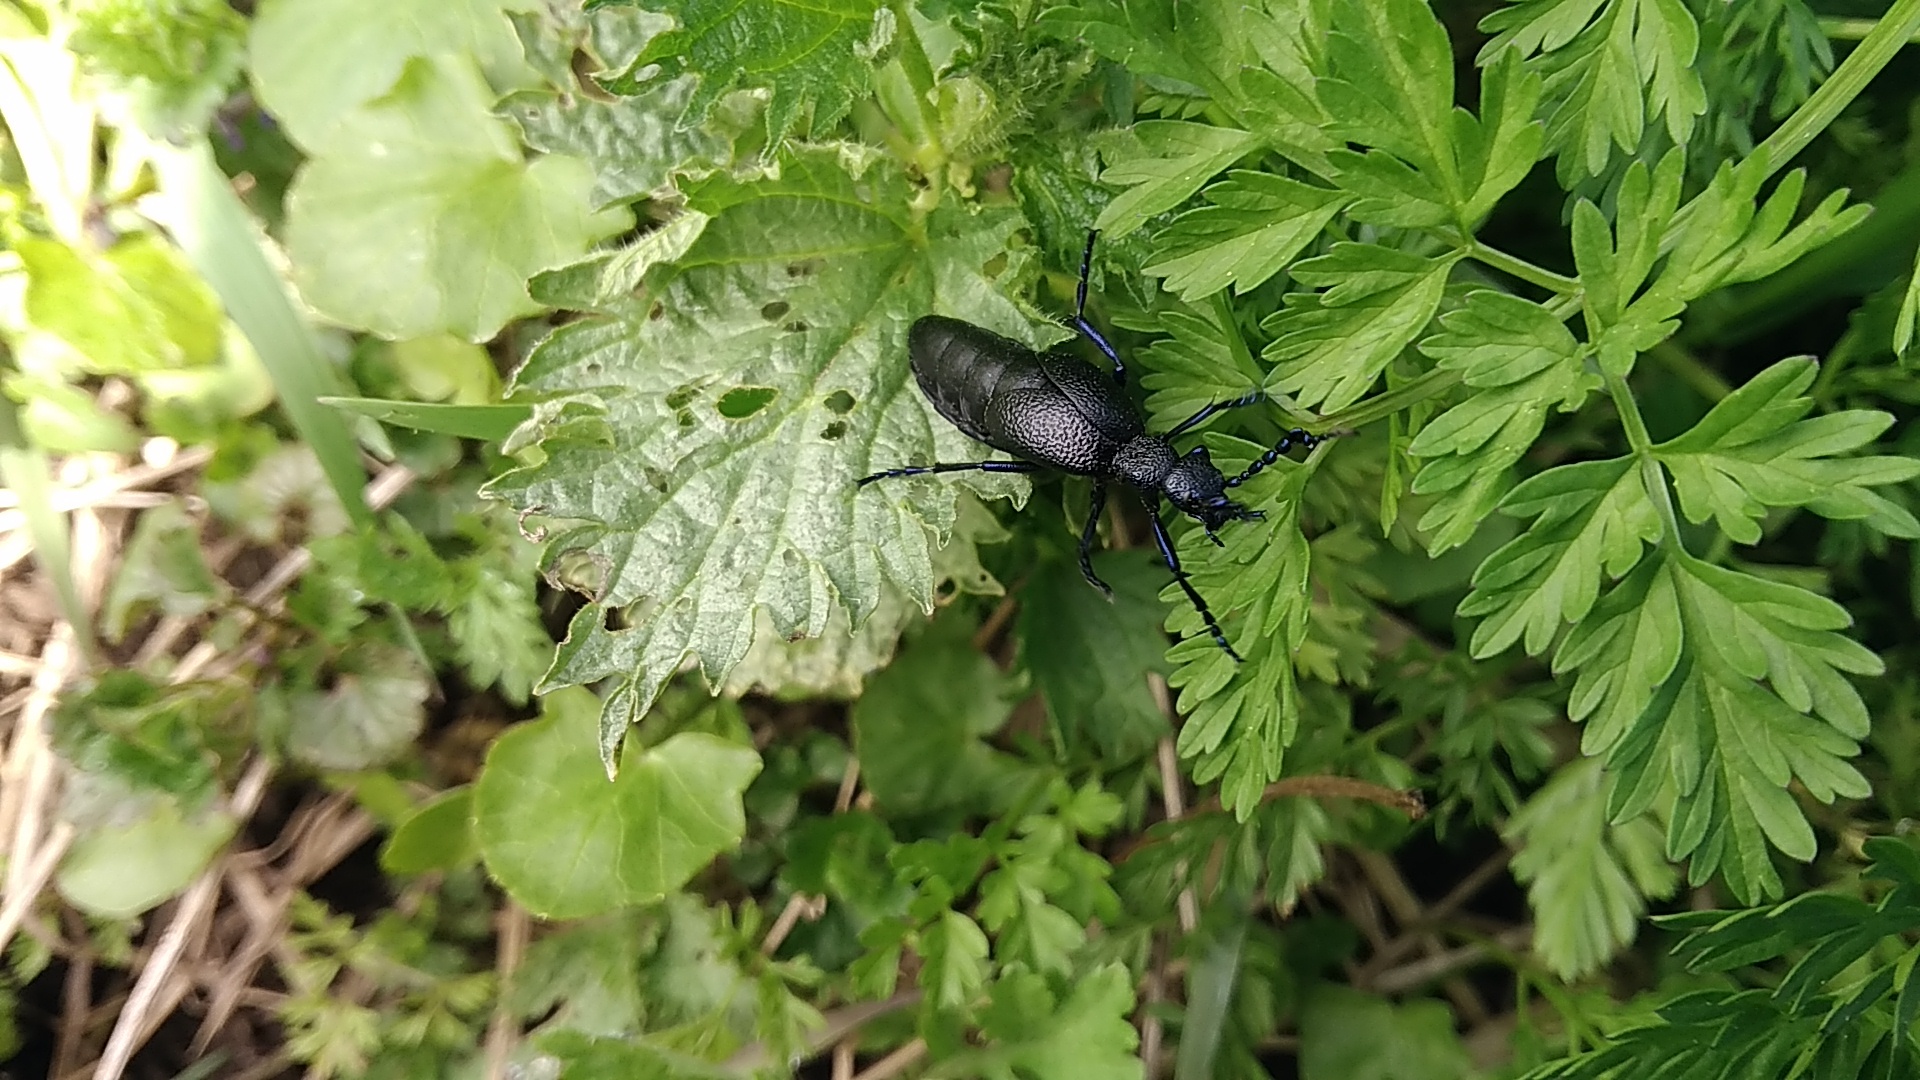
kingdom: Animalia
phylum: Arthropoda
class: Insecta
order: Coleoptera
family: Meloidae
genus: Meloe
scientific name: Meloe proscarabaeus
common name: Black oil-beetle
